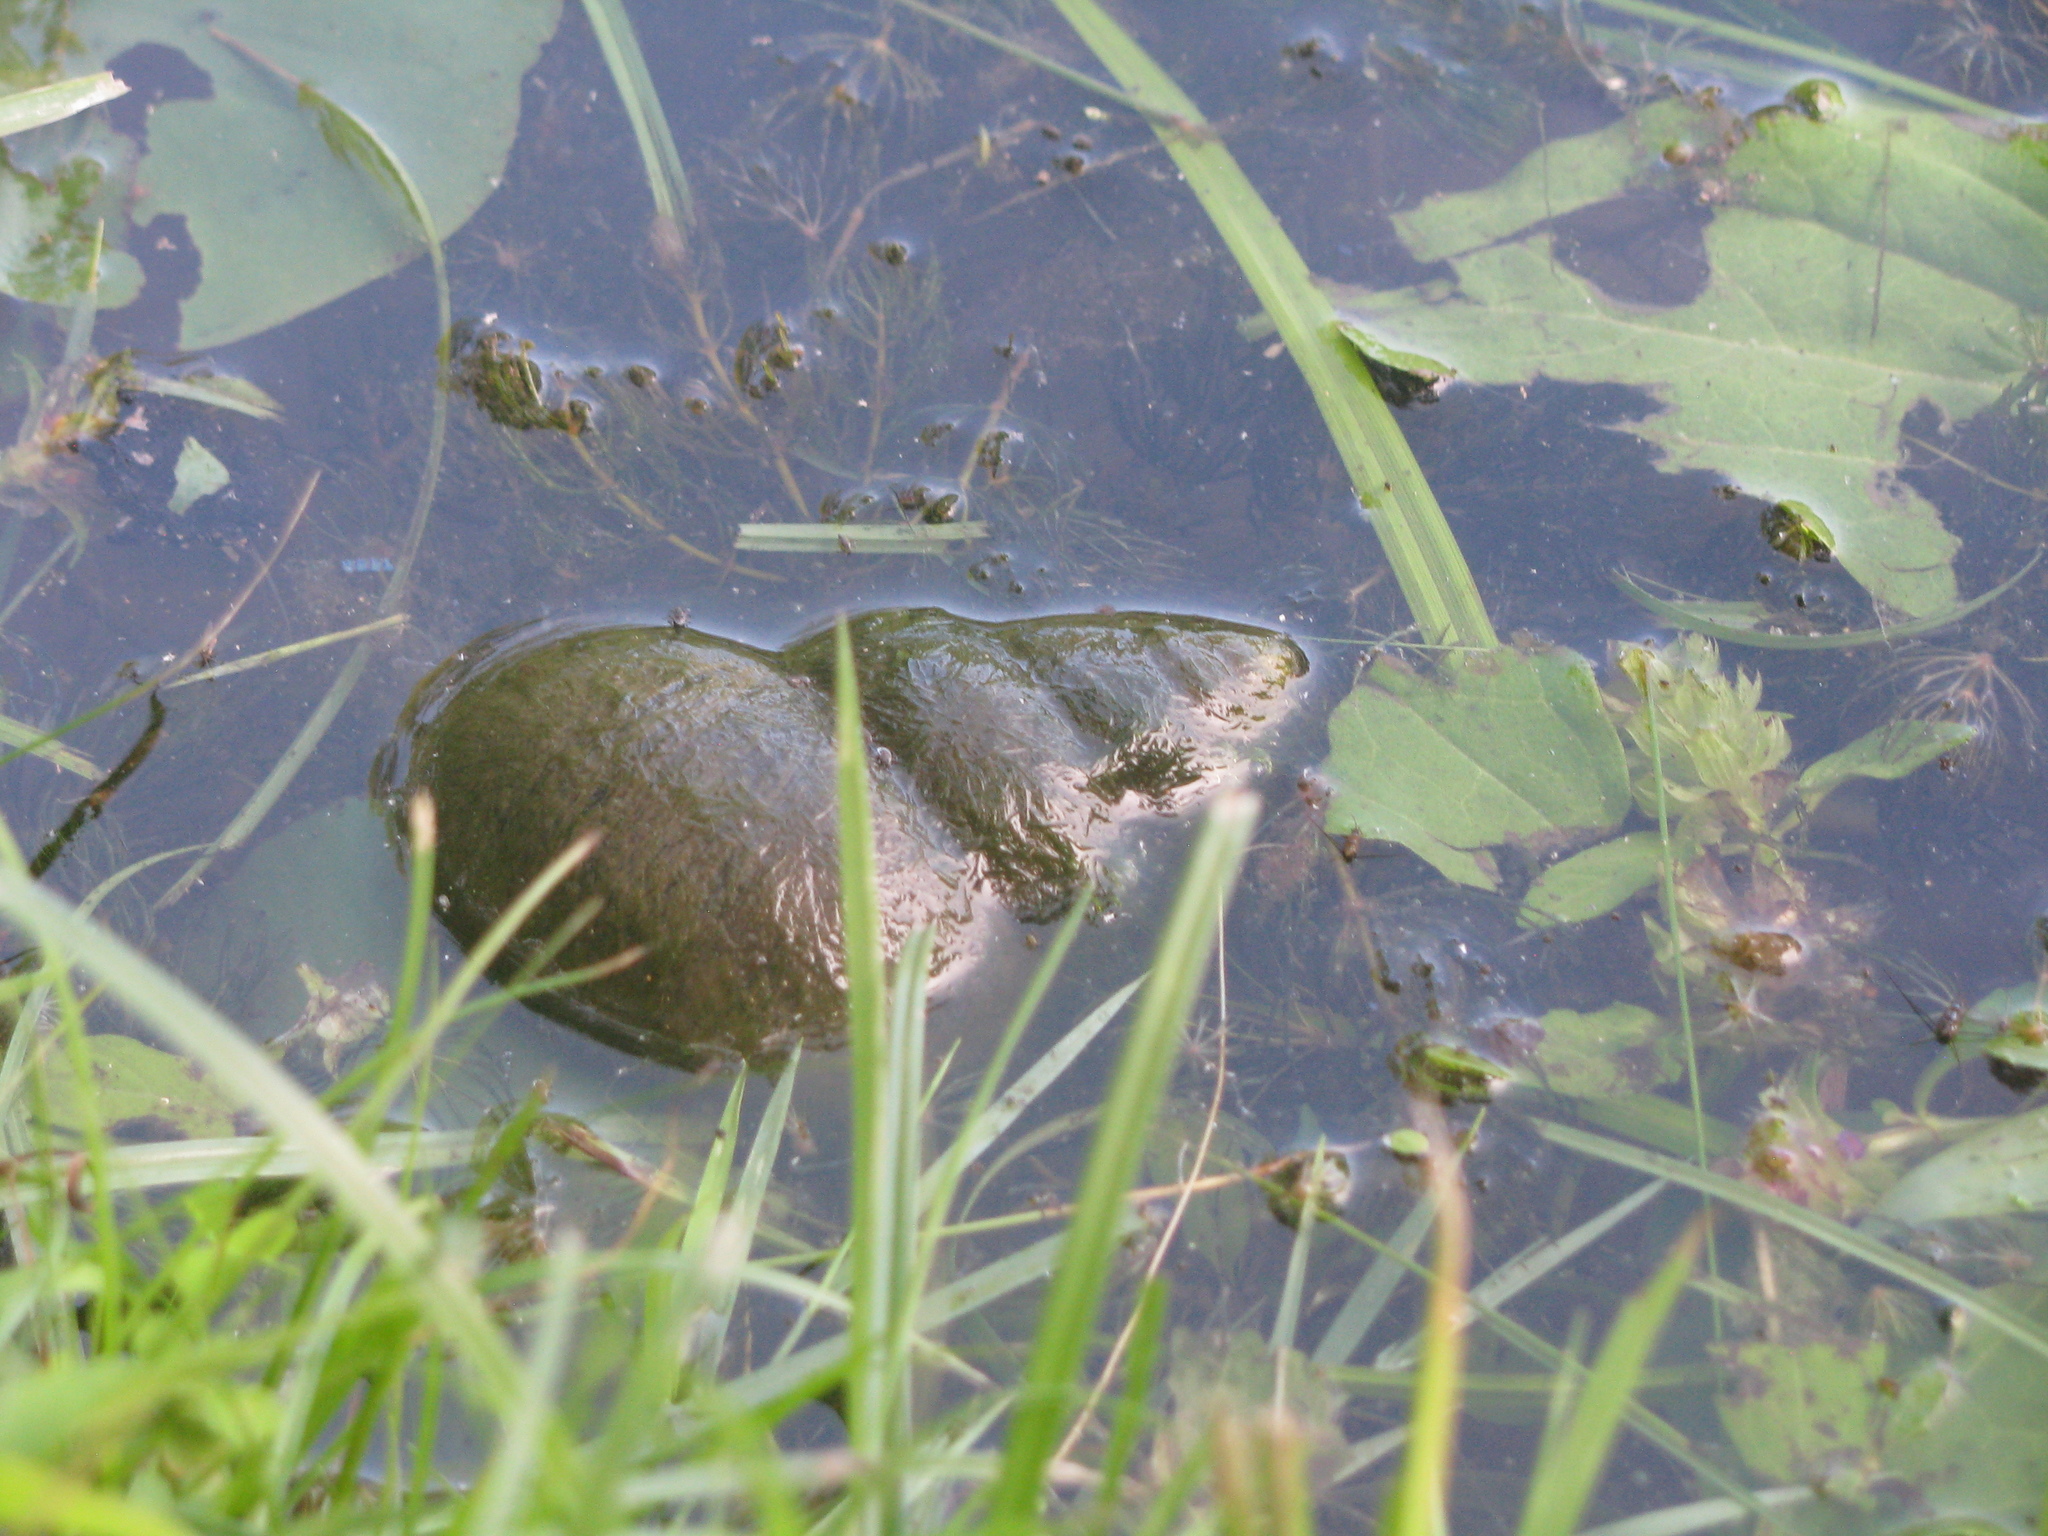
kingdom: Animalia
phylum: Mollusca
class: Gastropoda
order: Architaenioglossa
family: Viviparidae
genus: Cipangopaludina
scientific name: Cipangopaludina chinensis
